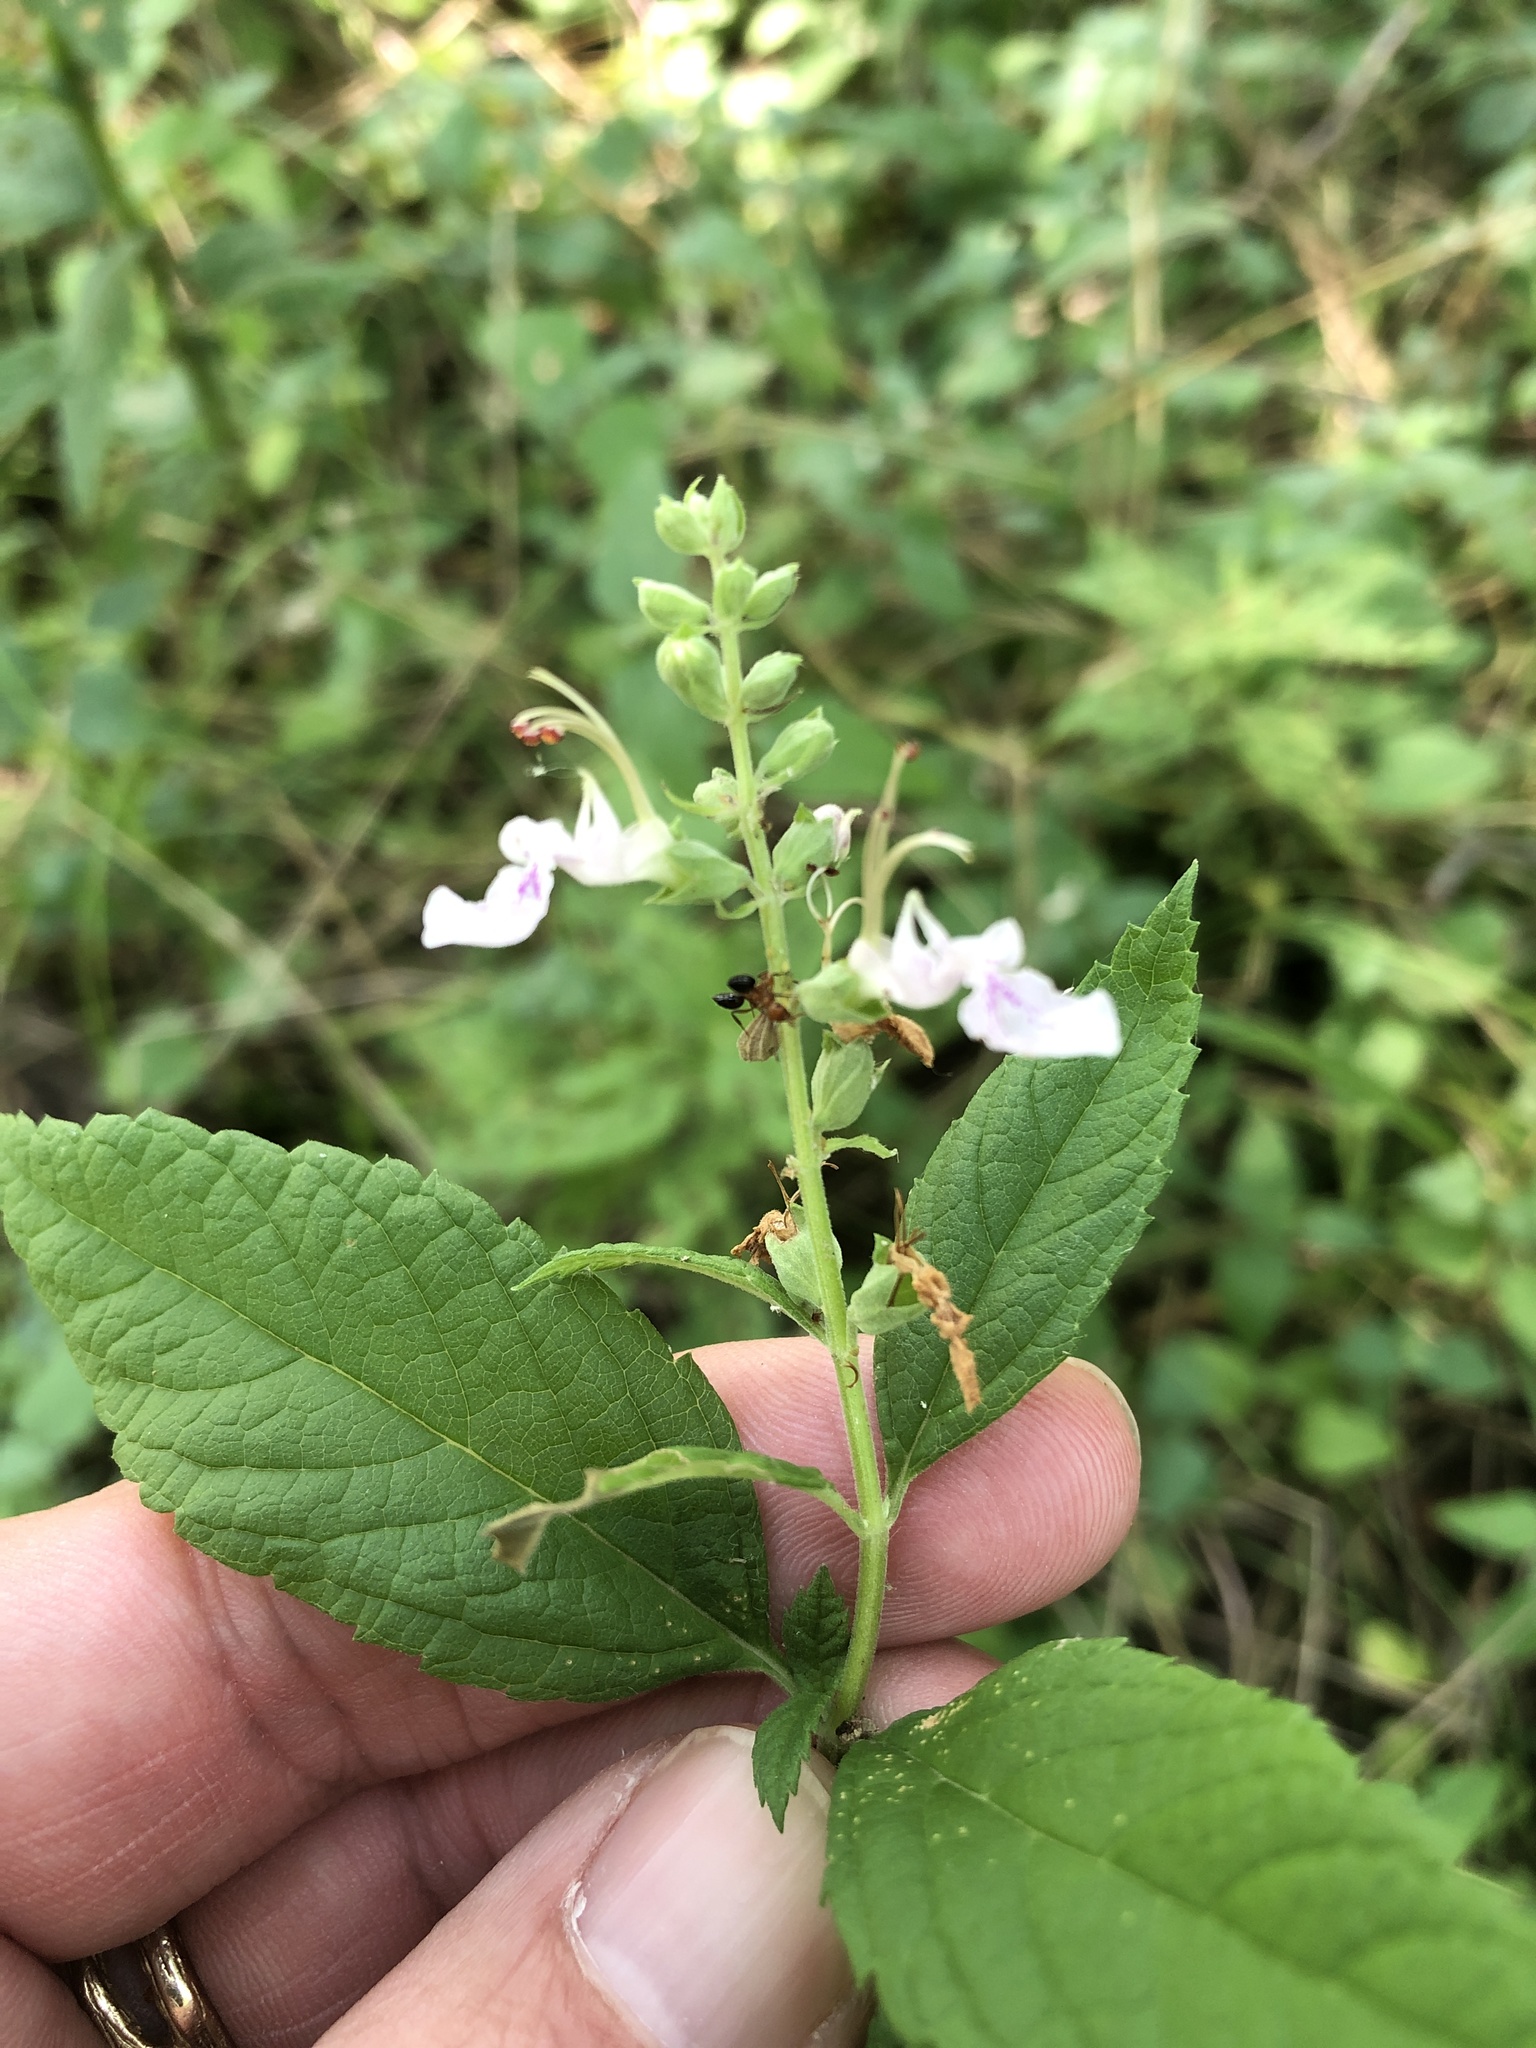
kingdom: Plantae
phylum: Tracheophyta
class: Magnoliopsida
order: Lamiales
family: Lamiaceae
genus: Teucrium
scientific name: Teucrium canadense
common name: American germander
